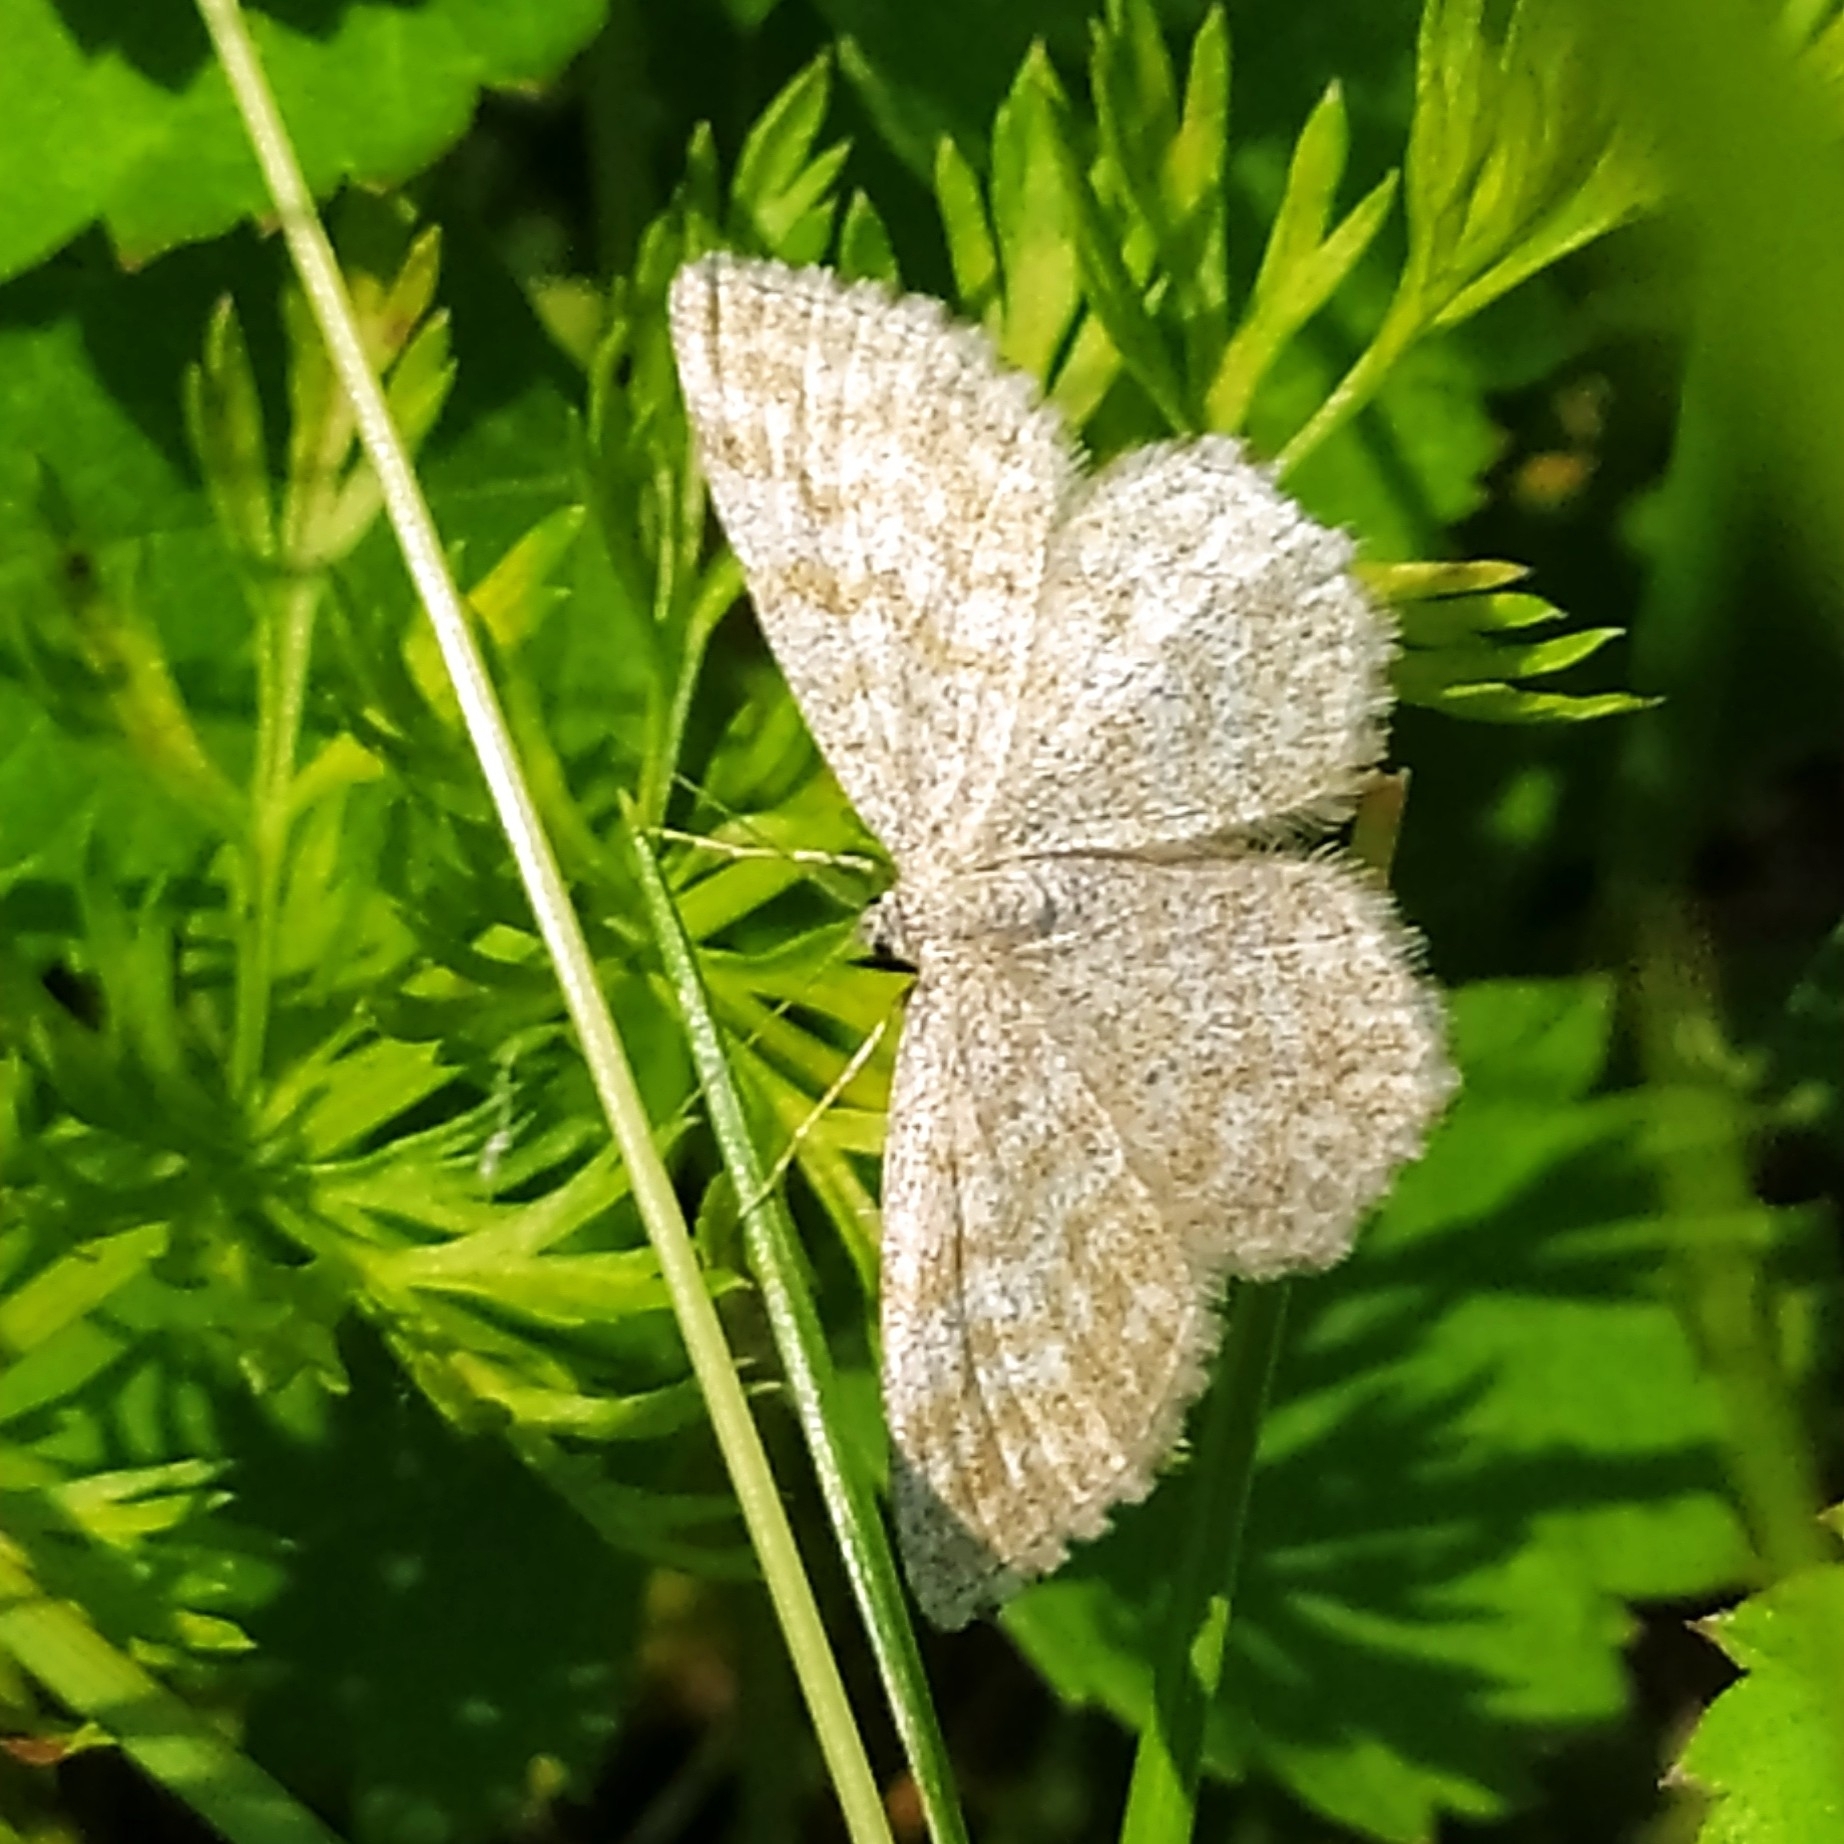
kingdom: Animalia
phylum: Arthropoda
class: Insecta
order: Lepidoptera
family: Geometridae
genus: Scopula
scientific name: Scopula immorata
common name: Lewes wave
